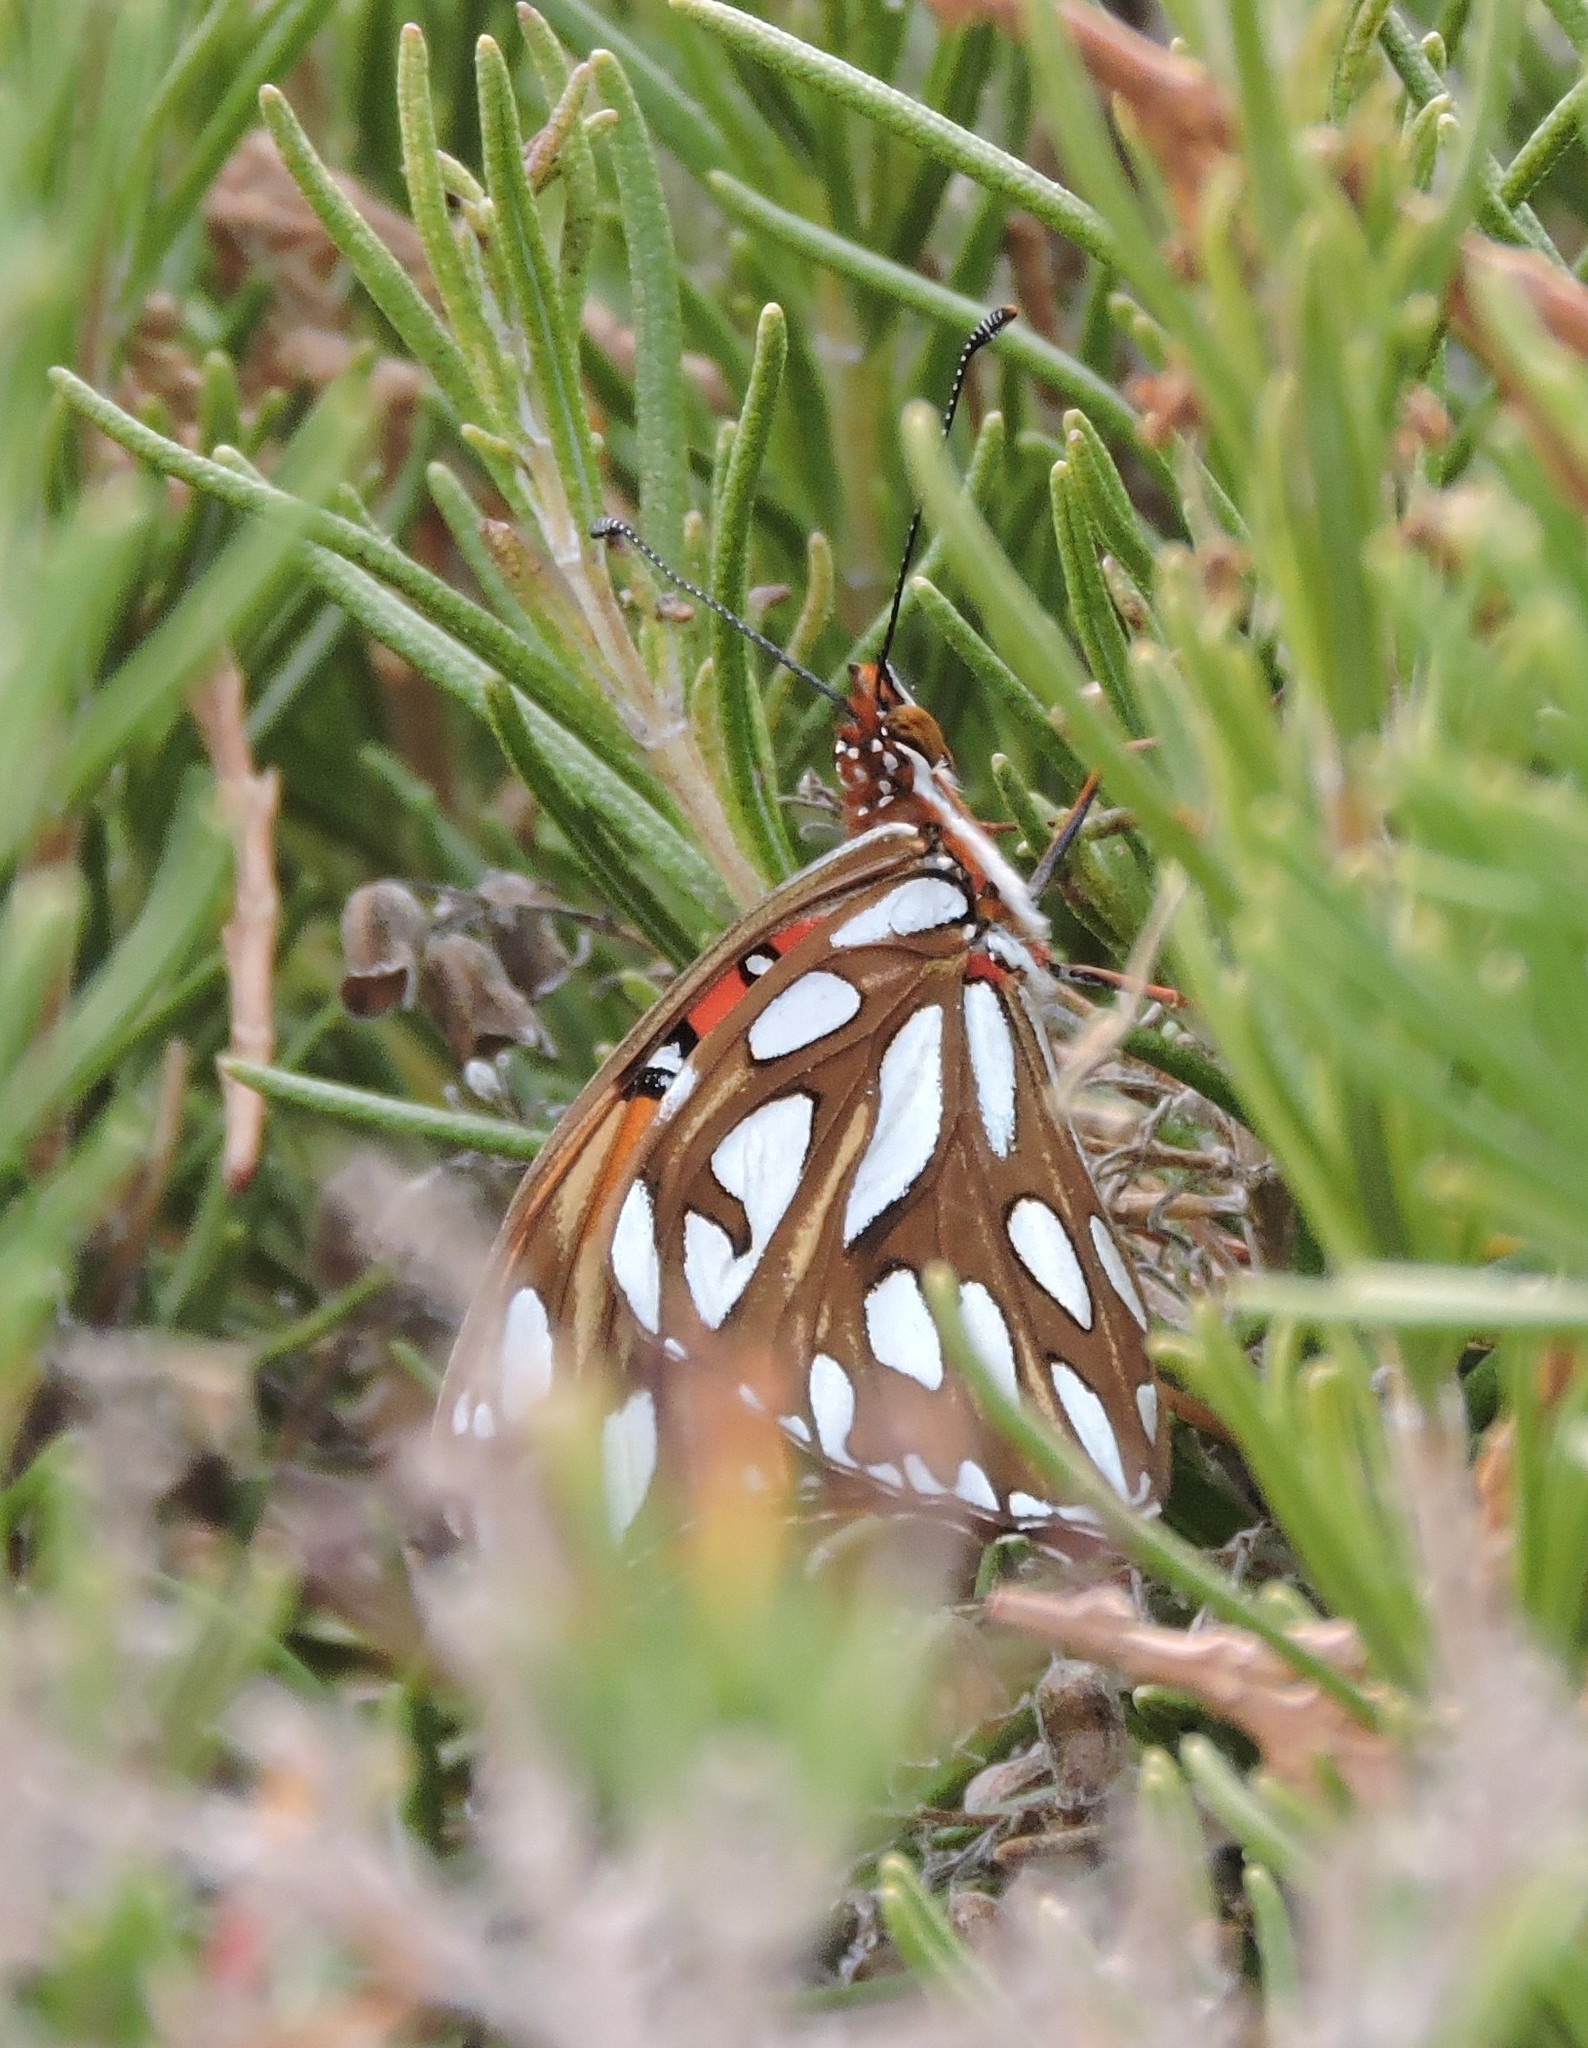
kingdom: Animalia
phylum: Arthropoda
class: Insecta
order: Lepidoptera
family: Nymphalidae
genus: Dione
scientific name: Dione vanillae
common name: Gulf fritillary
